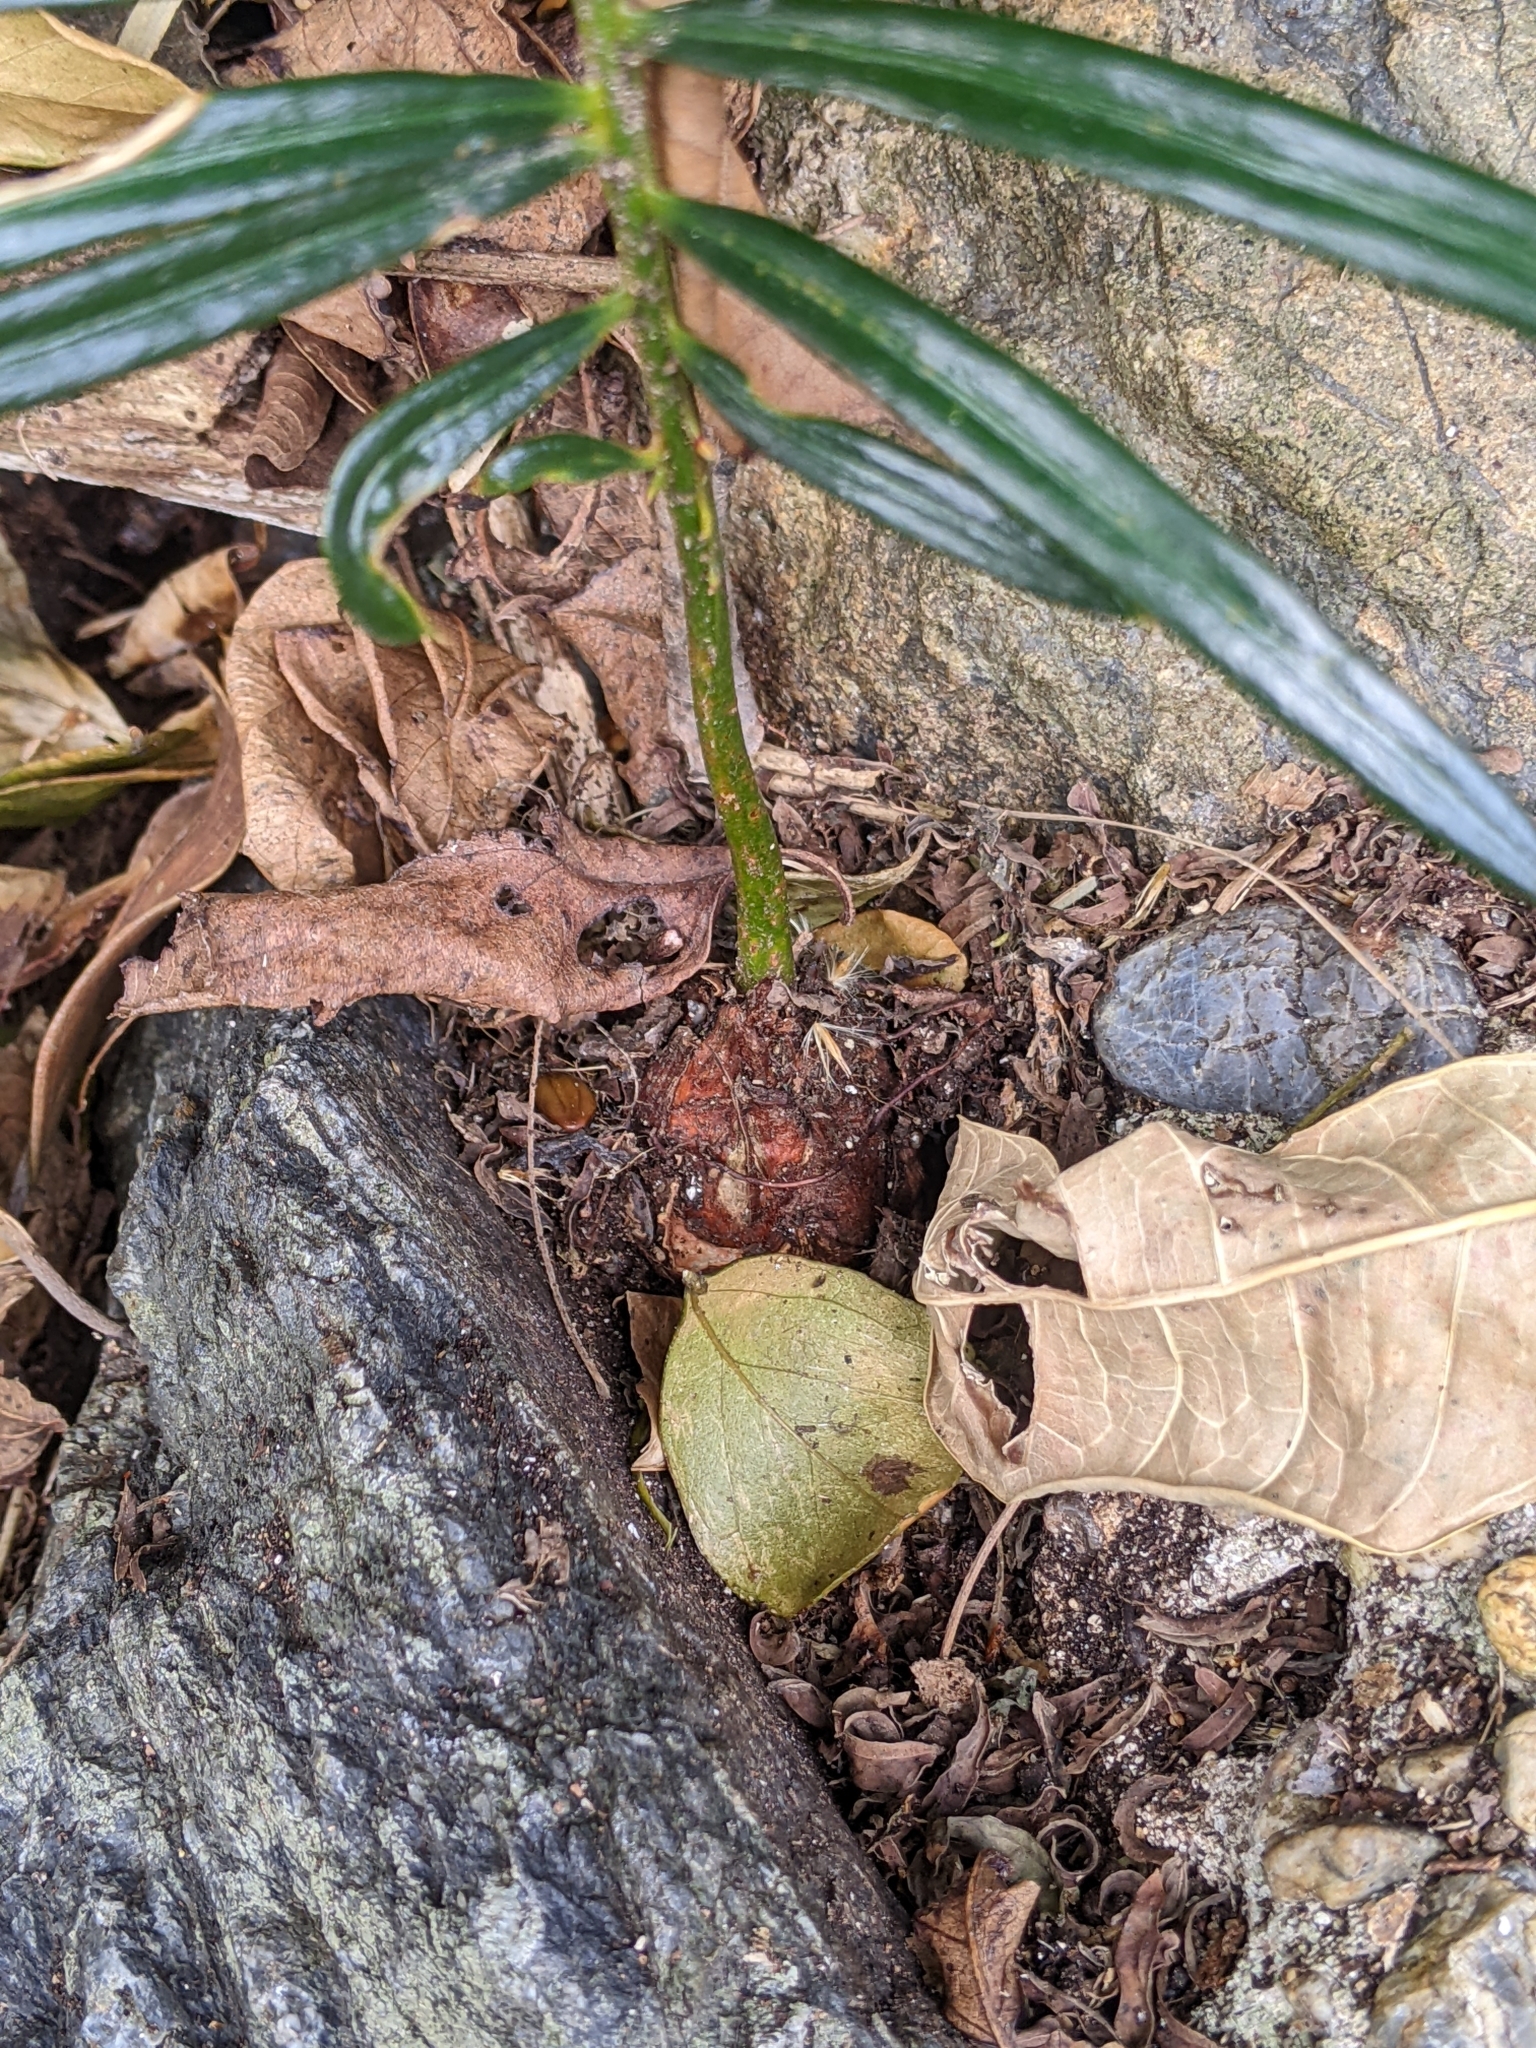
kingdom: Plantae
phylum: Tracheophyta
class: Cycadopsida
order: Cycadales
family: Cycadaceae
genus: Cycas
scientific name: Cycas revoluta
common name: Sago palm
